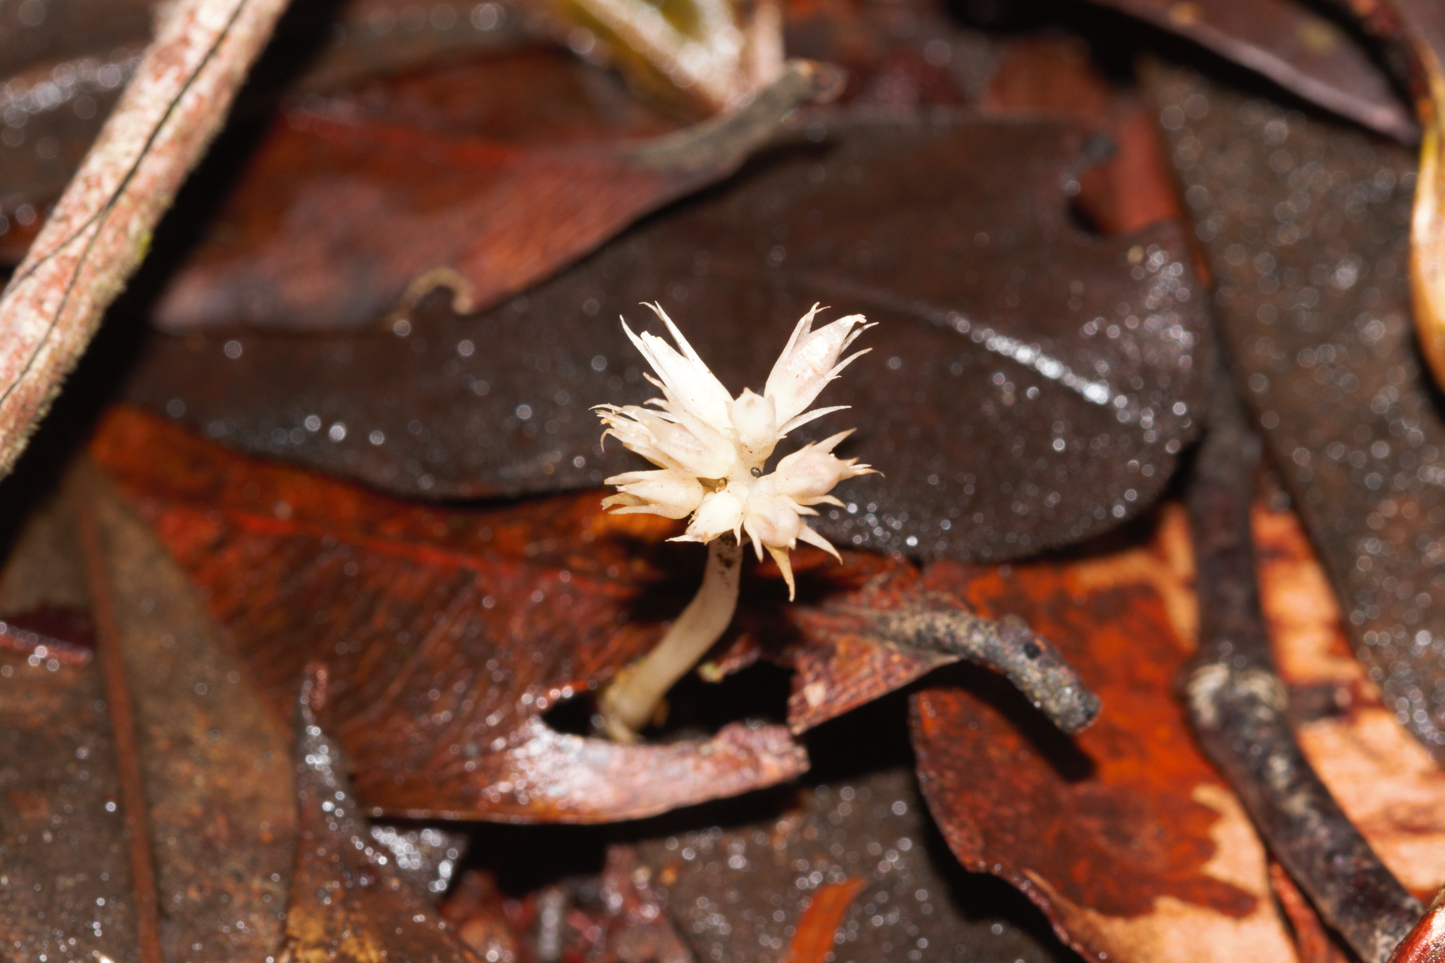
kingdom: Plantae
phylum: Tracheophyta
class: Magnoliopsida
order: Gentianales
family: Gentianaceae
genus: Voyriella
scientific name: Voyriella parviflora
